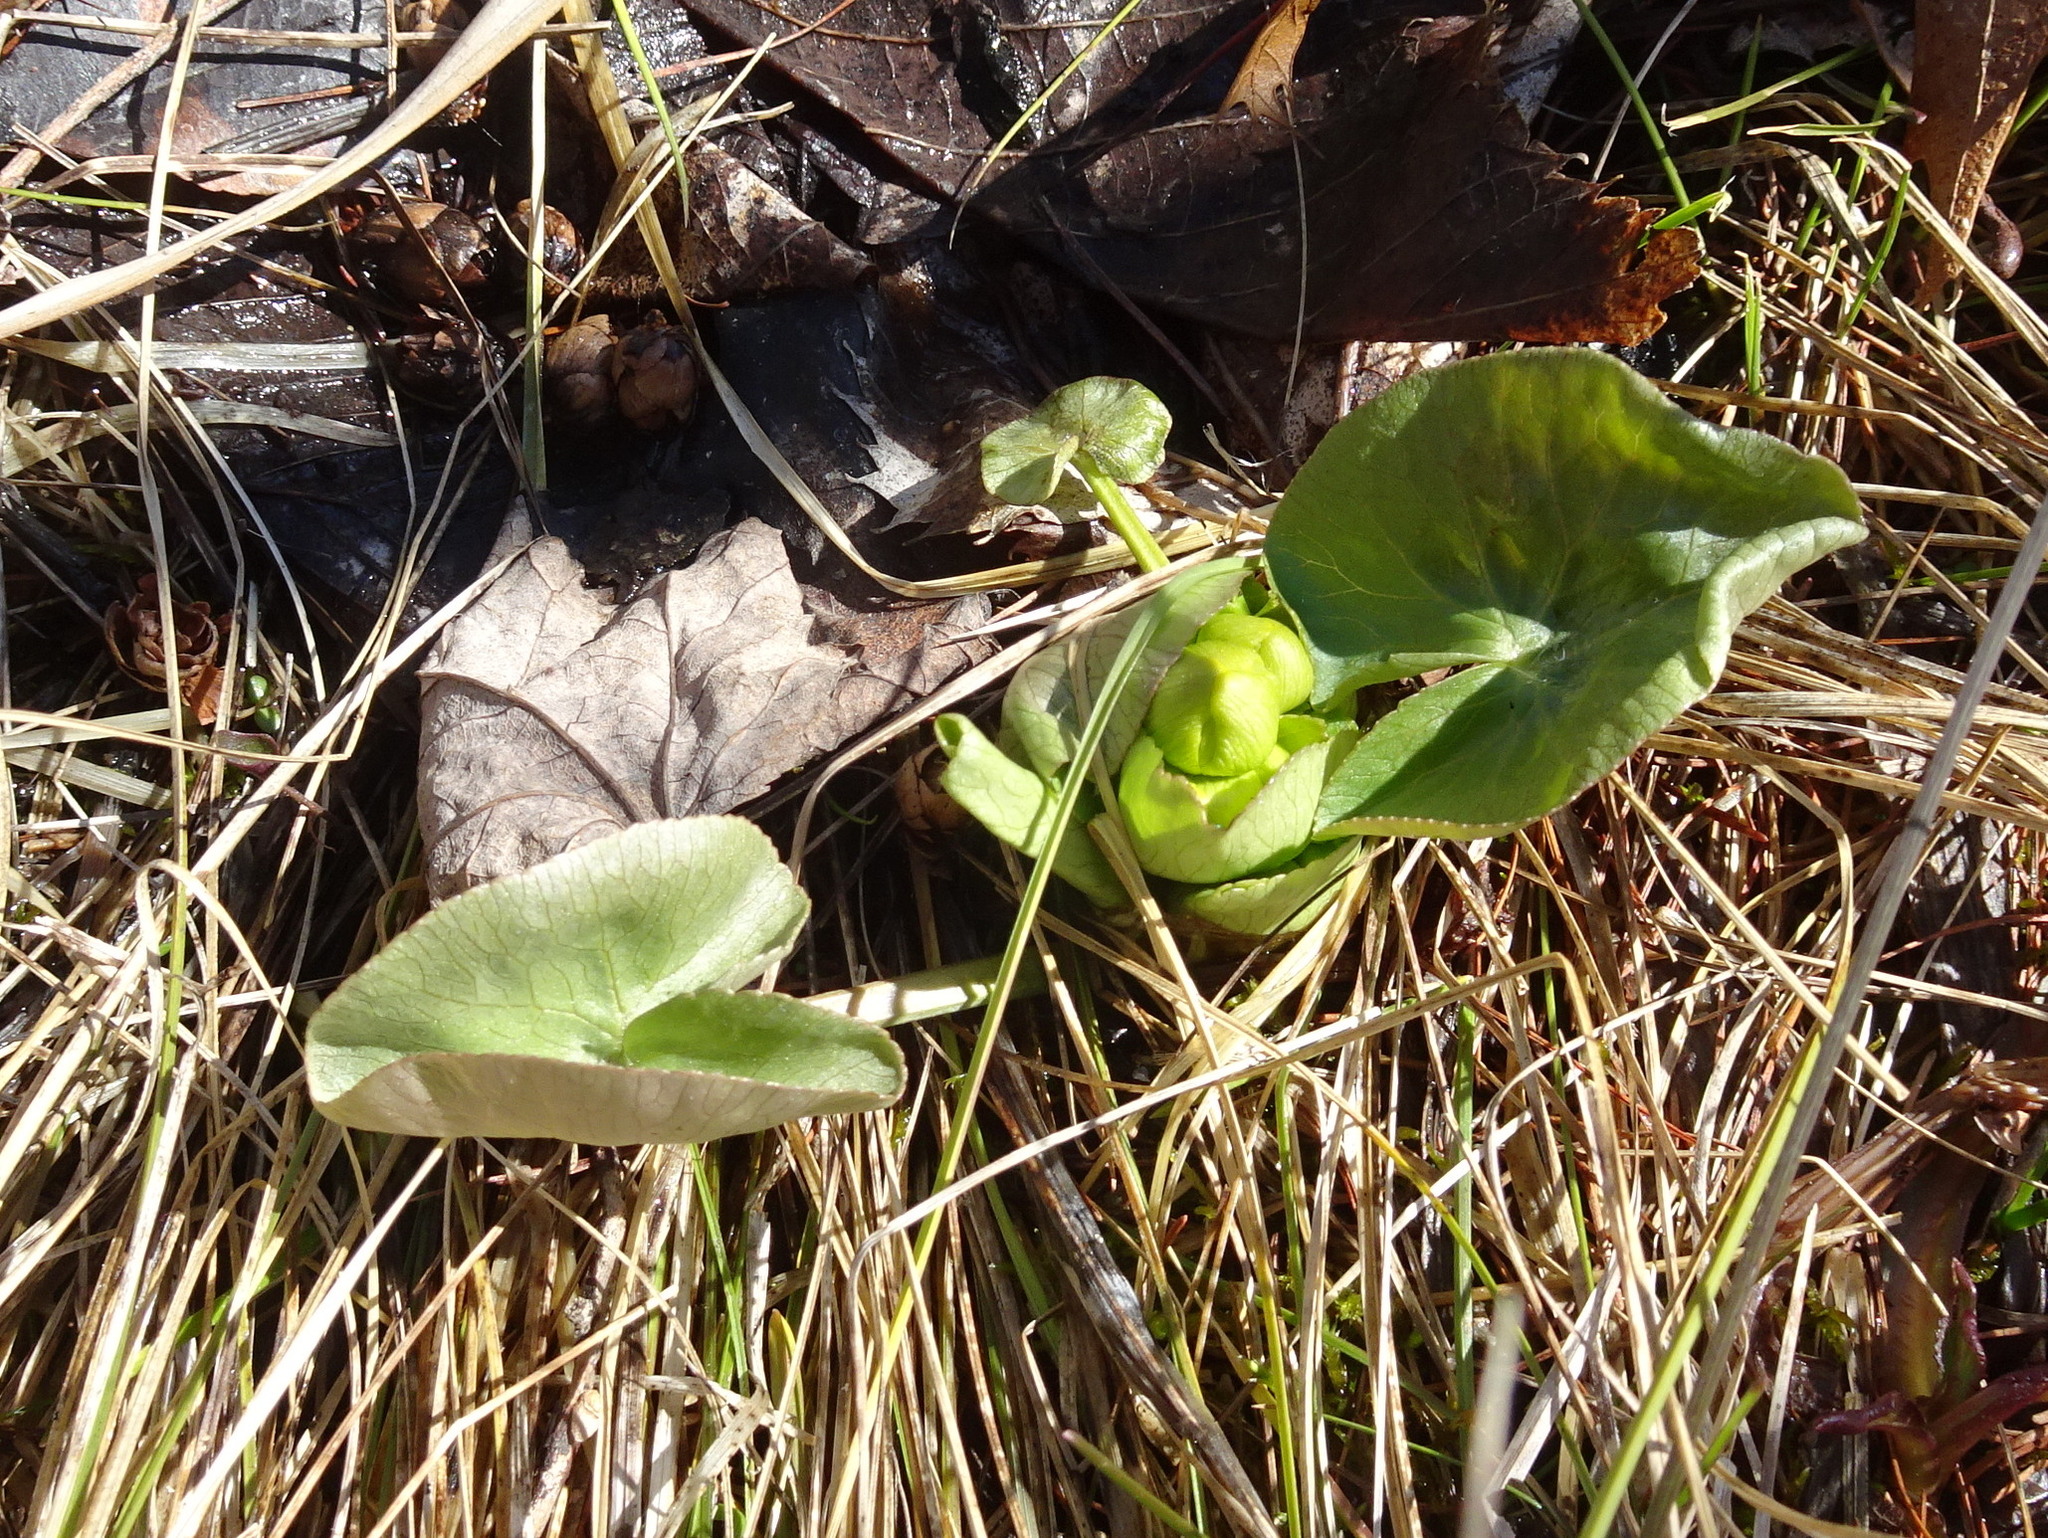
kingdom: Plantae
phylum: Tracheophyta
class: Magnoliopsida
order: Ranunculales
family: Ranunculaceae
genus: Caltha
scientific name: Caltha palustris
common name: Marsh marigold
